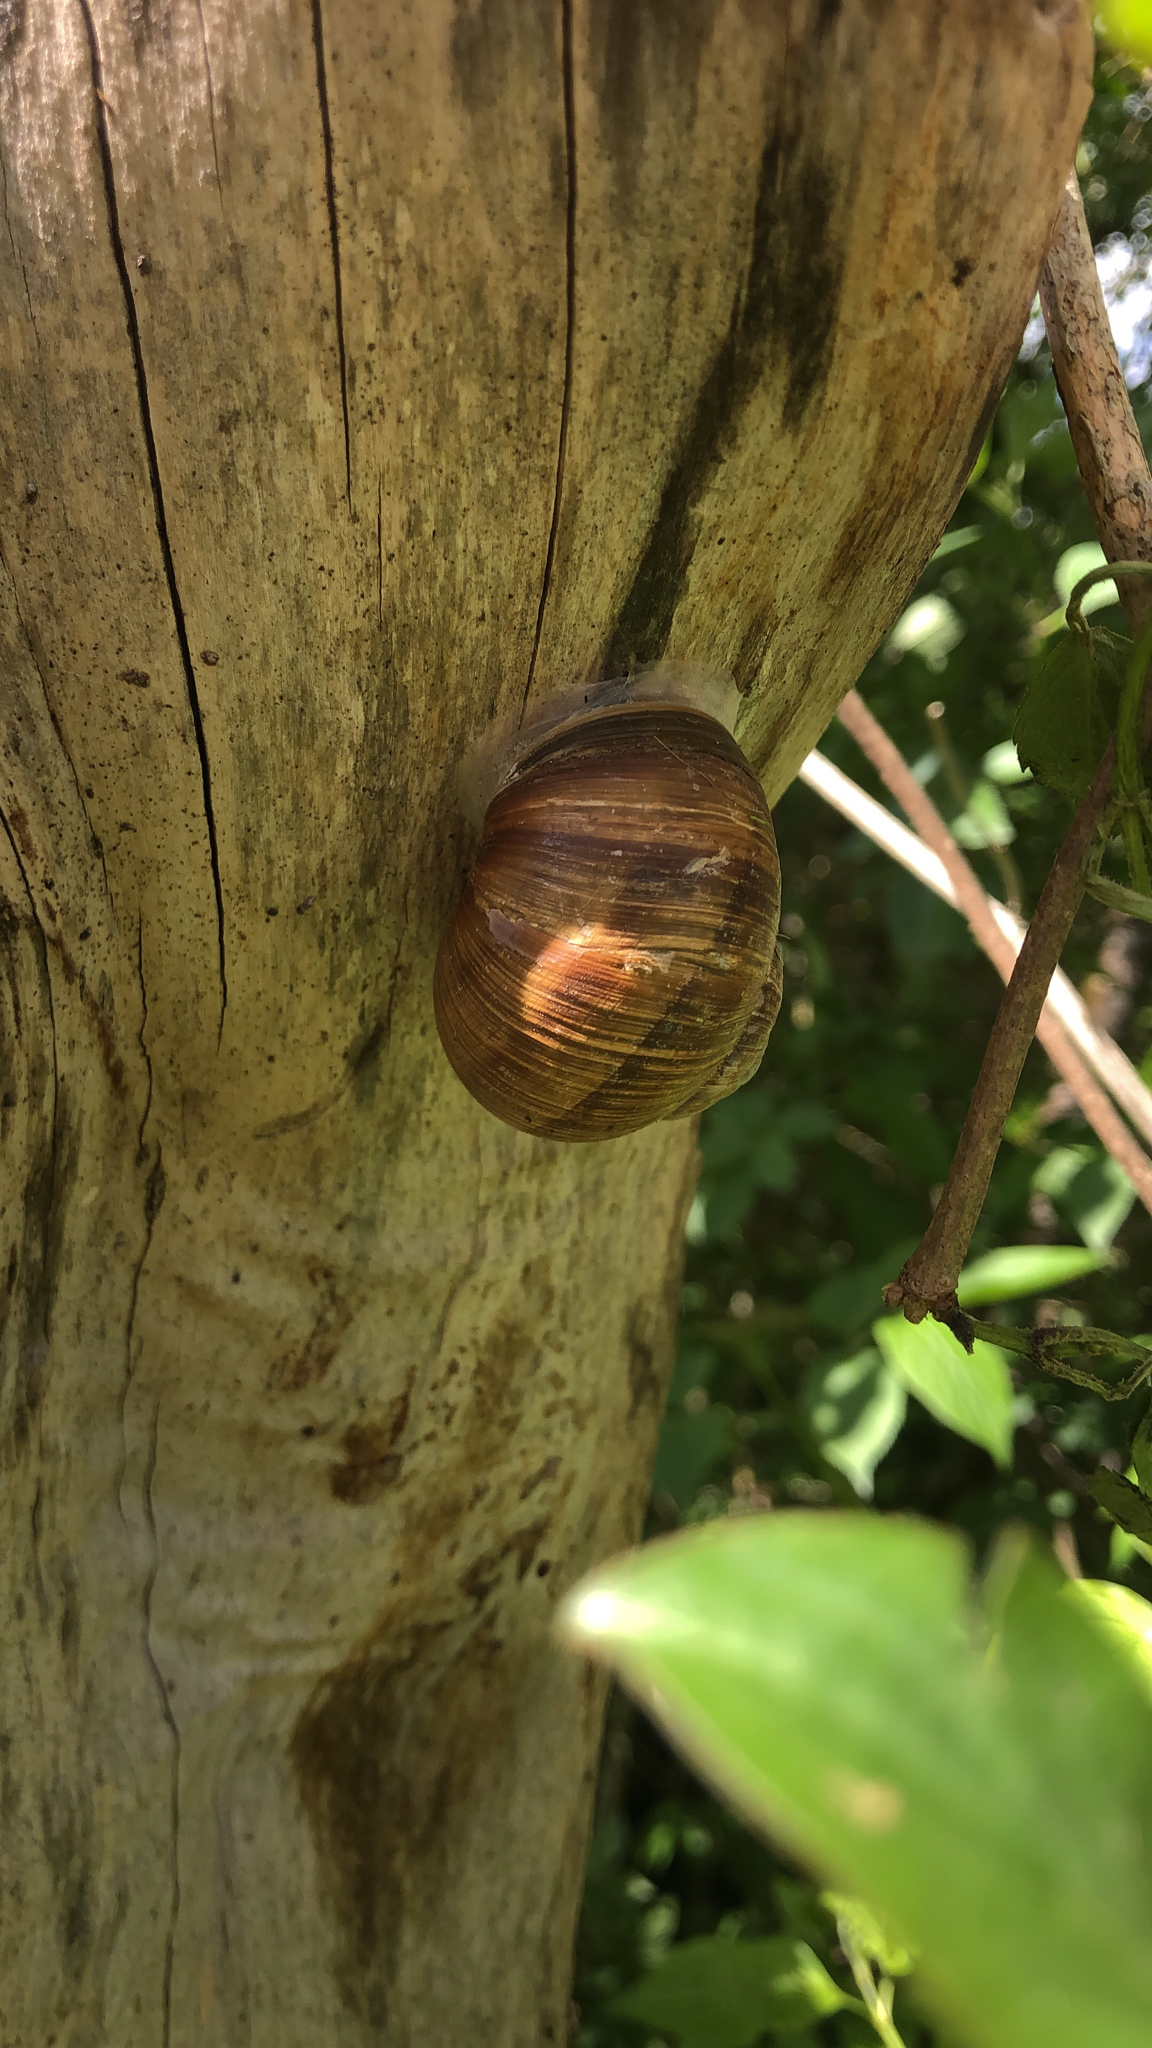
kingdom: Animalia
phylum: Mollusca
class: Gastropoda
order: Stylommatophora
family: Helicidae
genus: Helix
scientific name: Helix pomatia
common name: Roman snail
